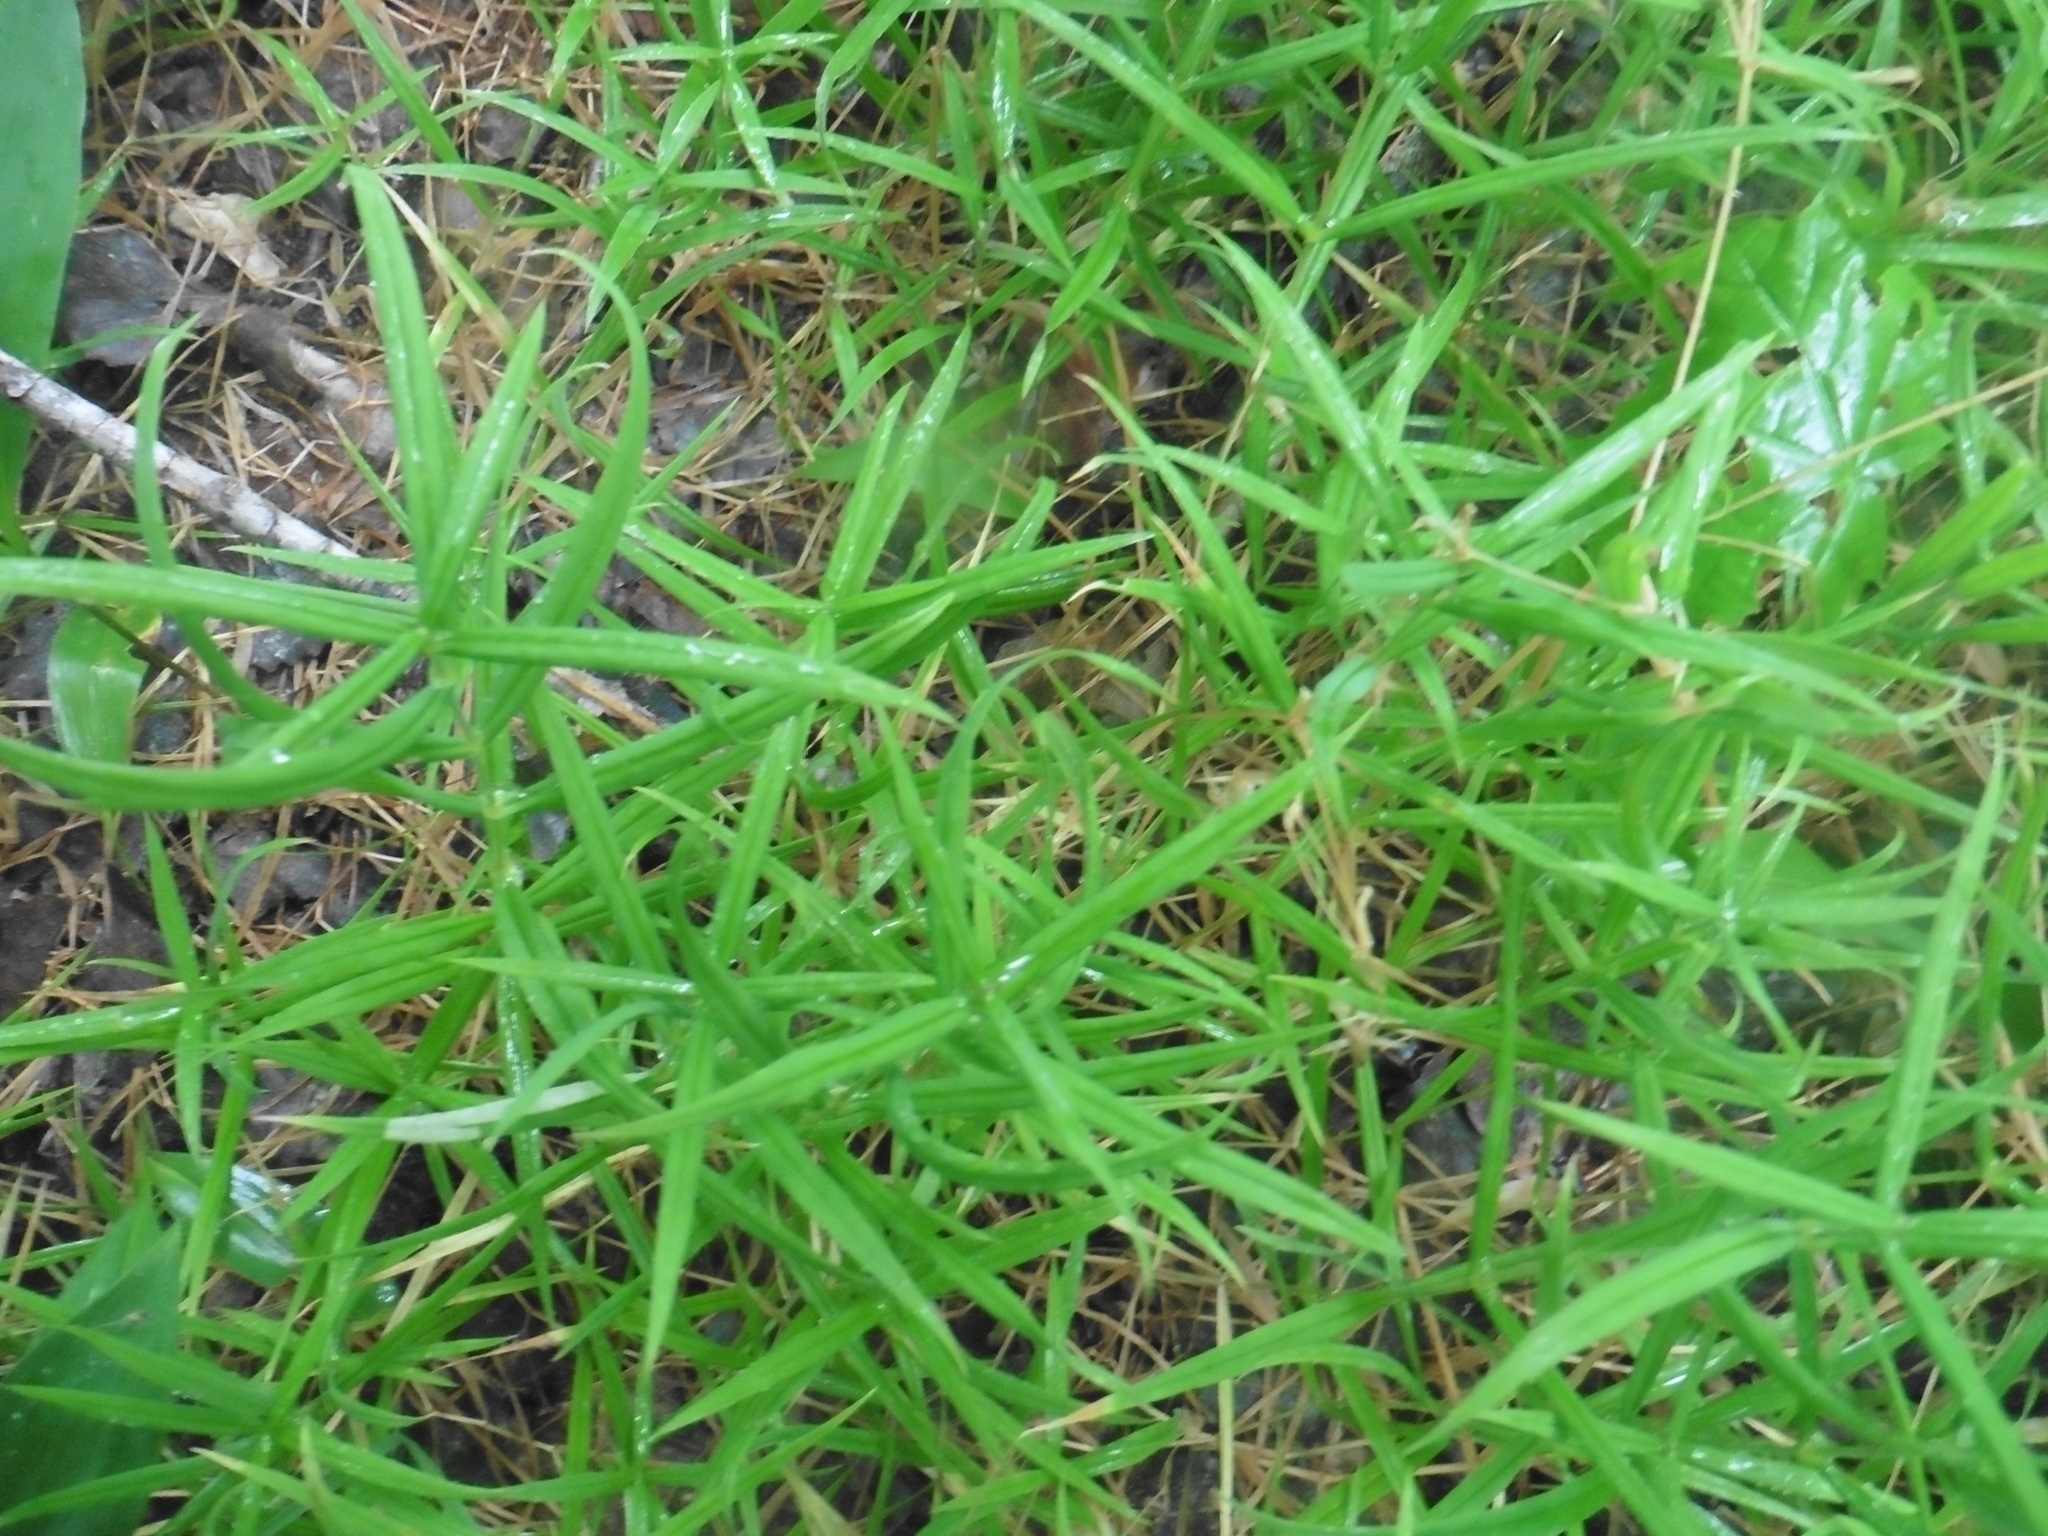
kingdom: Plantae
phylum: Tracheophyta
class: Magnoliopsida
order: Caryophyllales
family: Caryophyllaceae
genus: Rabelera
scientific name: Rabelera holostea
